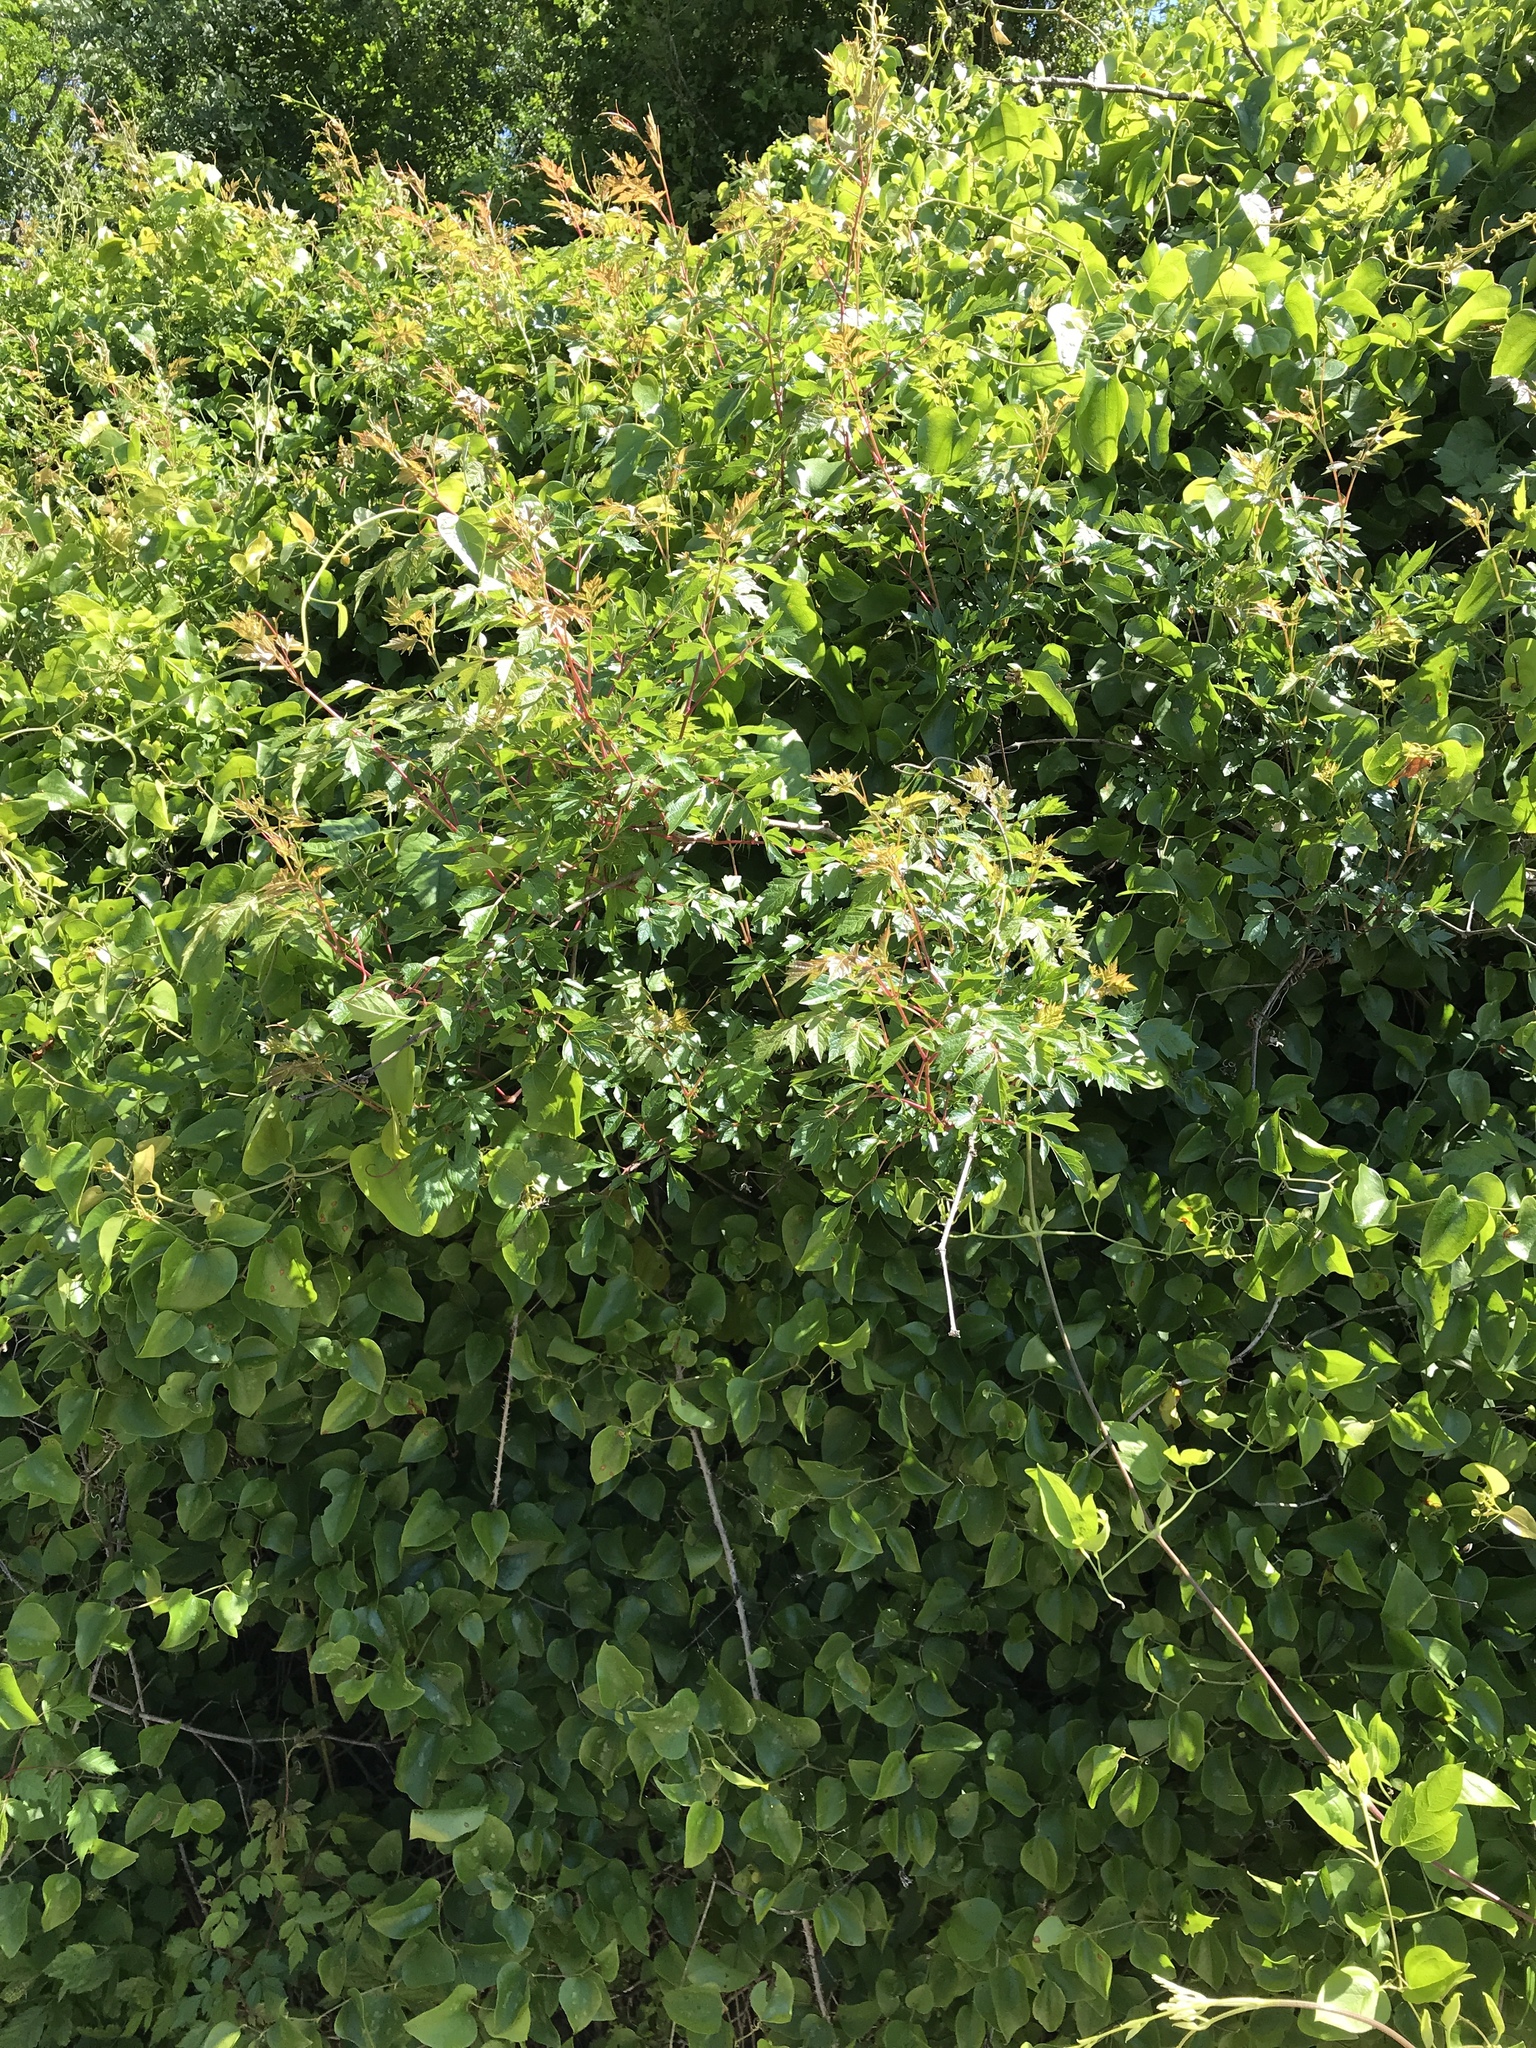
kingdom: Plantae
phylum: Tracheophyta
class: Magnoliopsida
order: Vitales
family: Vitaceae
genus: Nekemias
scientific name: Nekemias arborea
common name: Peppervine
